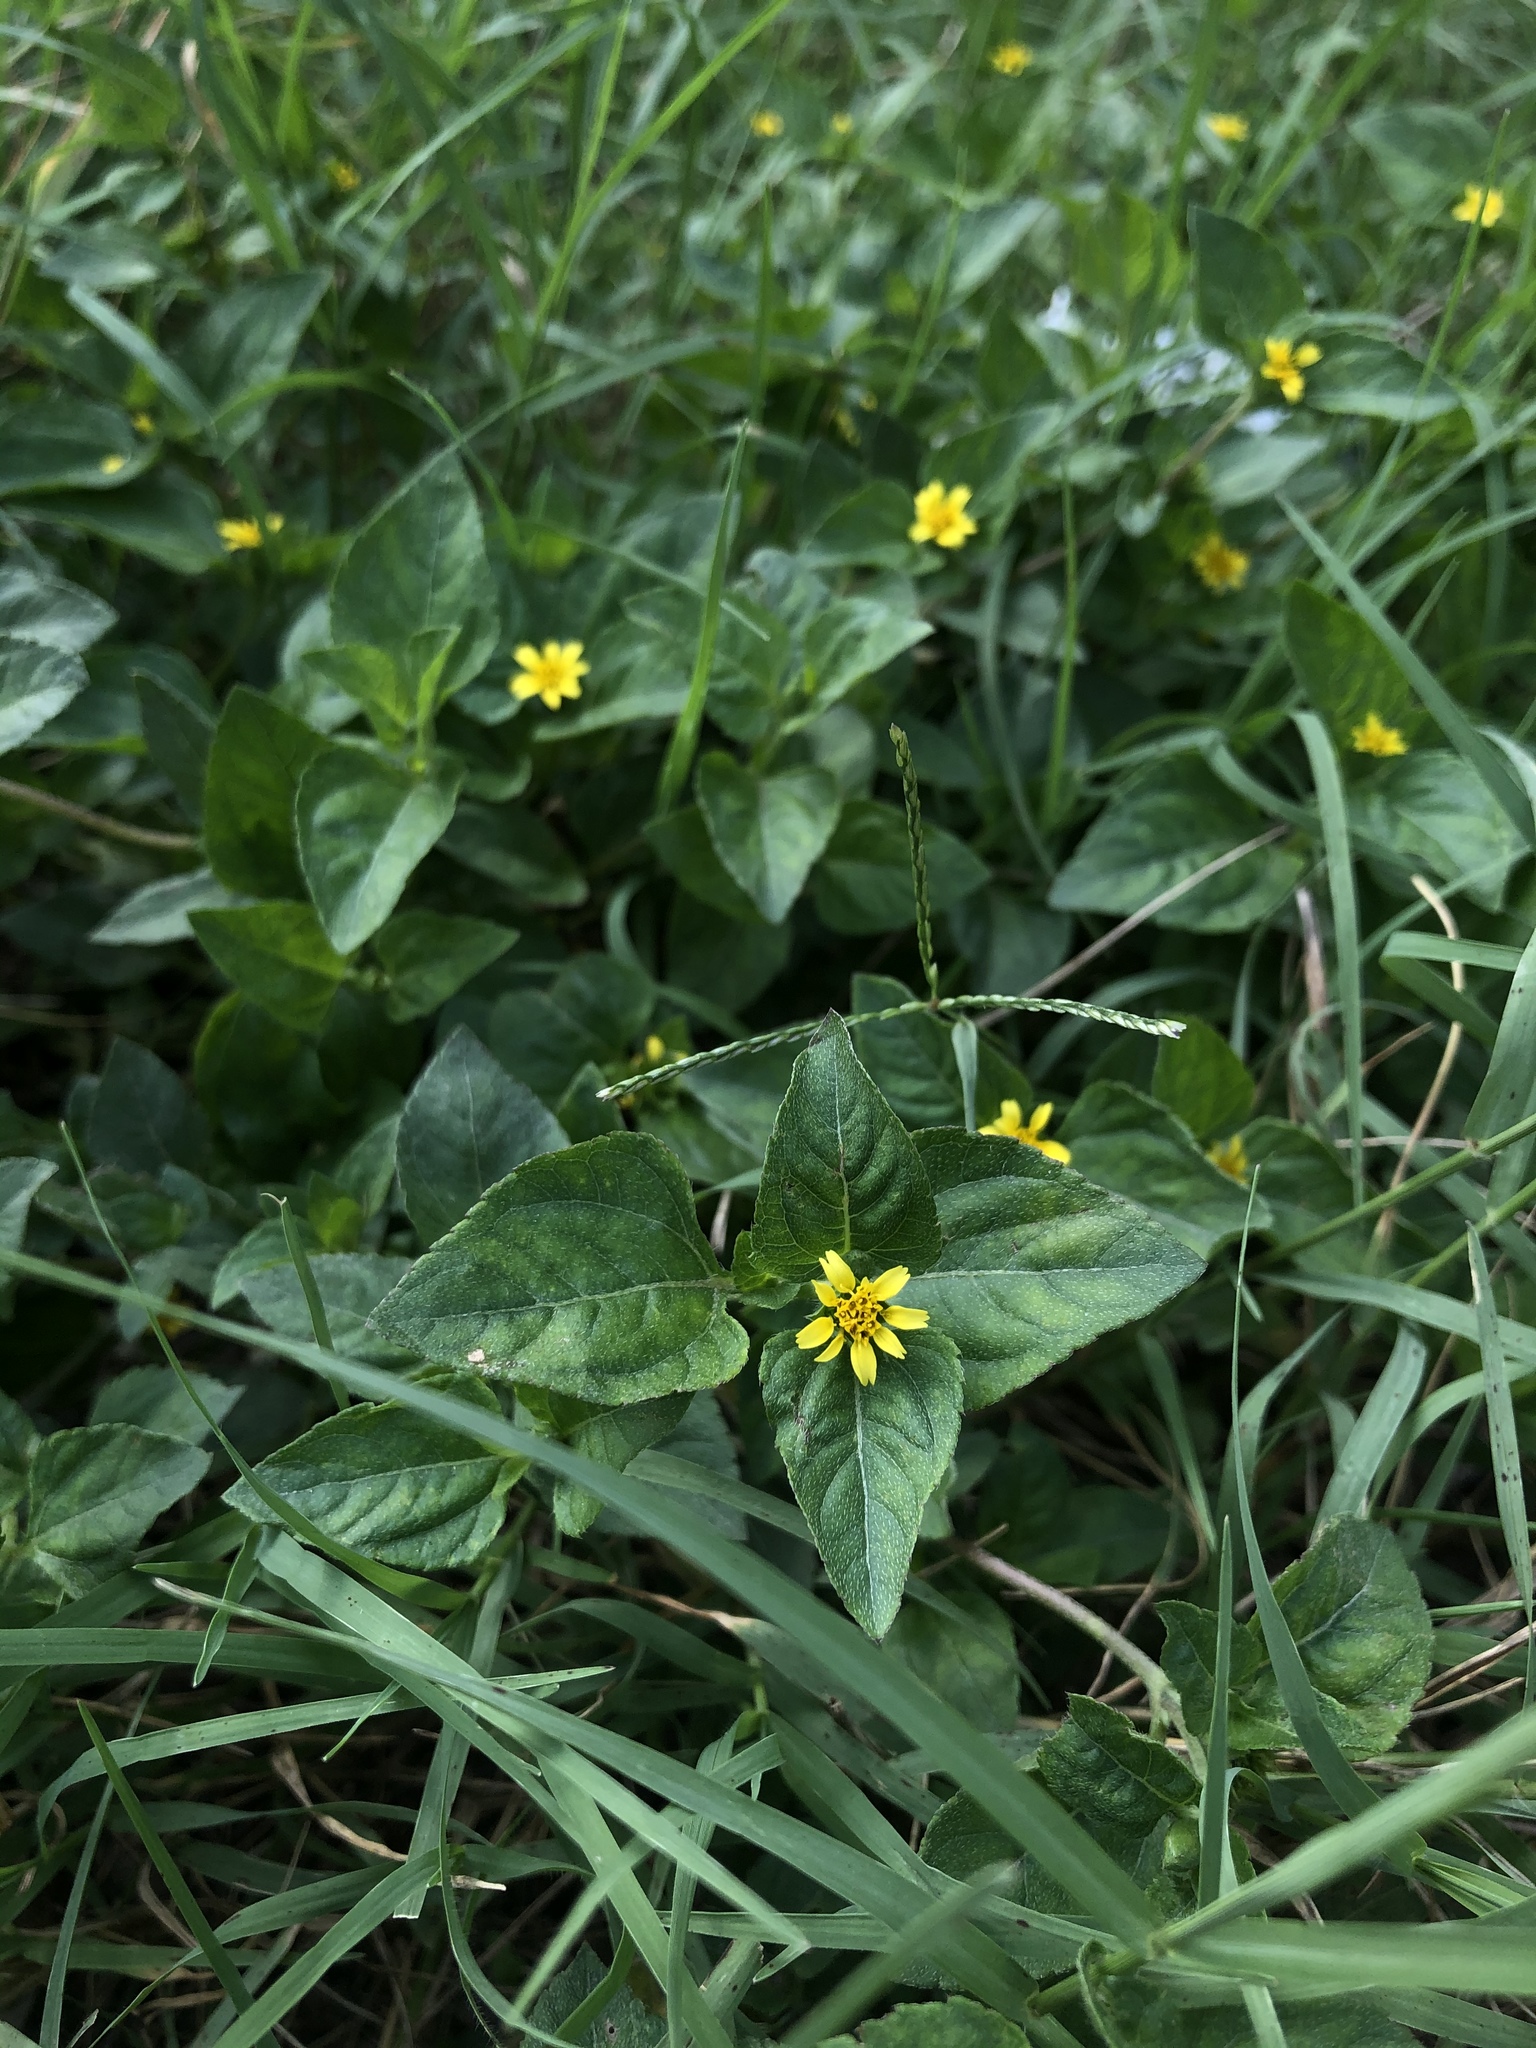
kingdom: Plantae
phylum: Tracheophyta
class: Magnoliopsida
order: Asterales
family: Asteraceae
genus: Calyptocarpus
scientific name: Calyptocarpus vialis
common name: Straggler daisy
